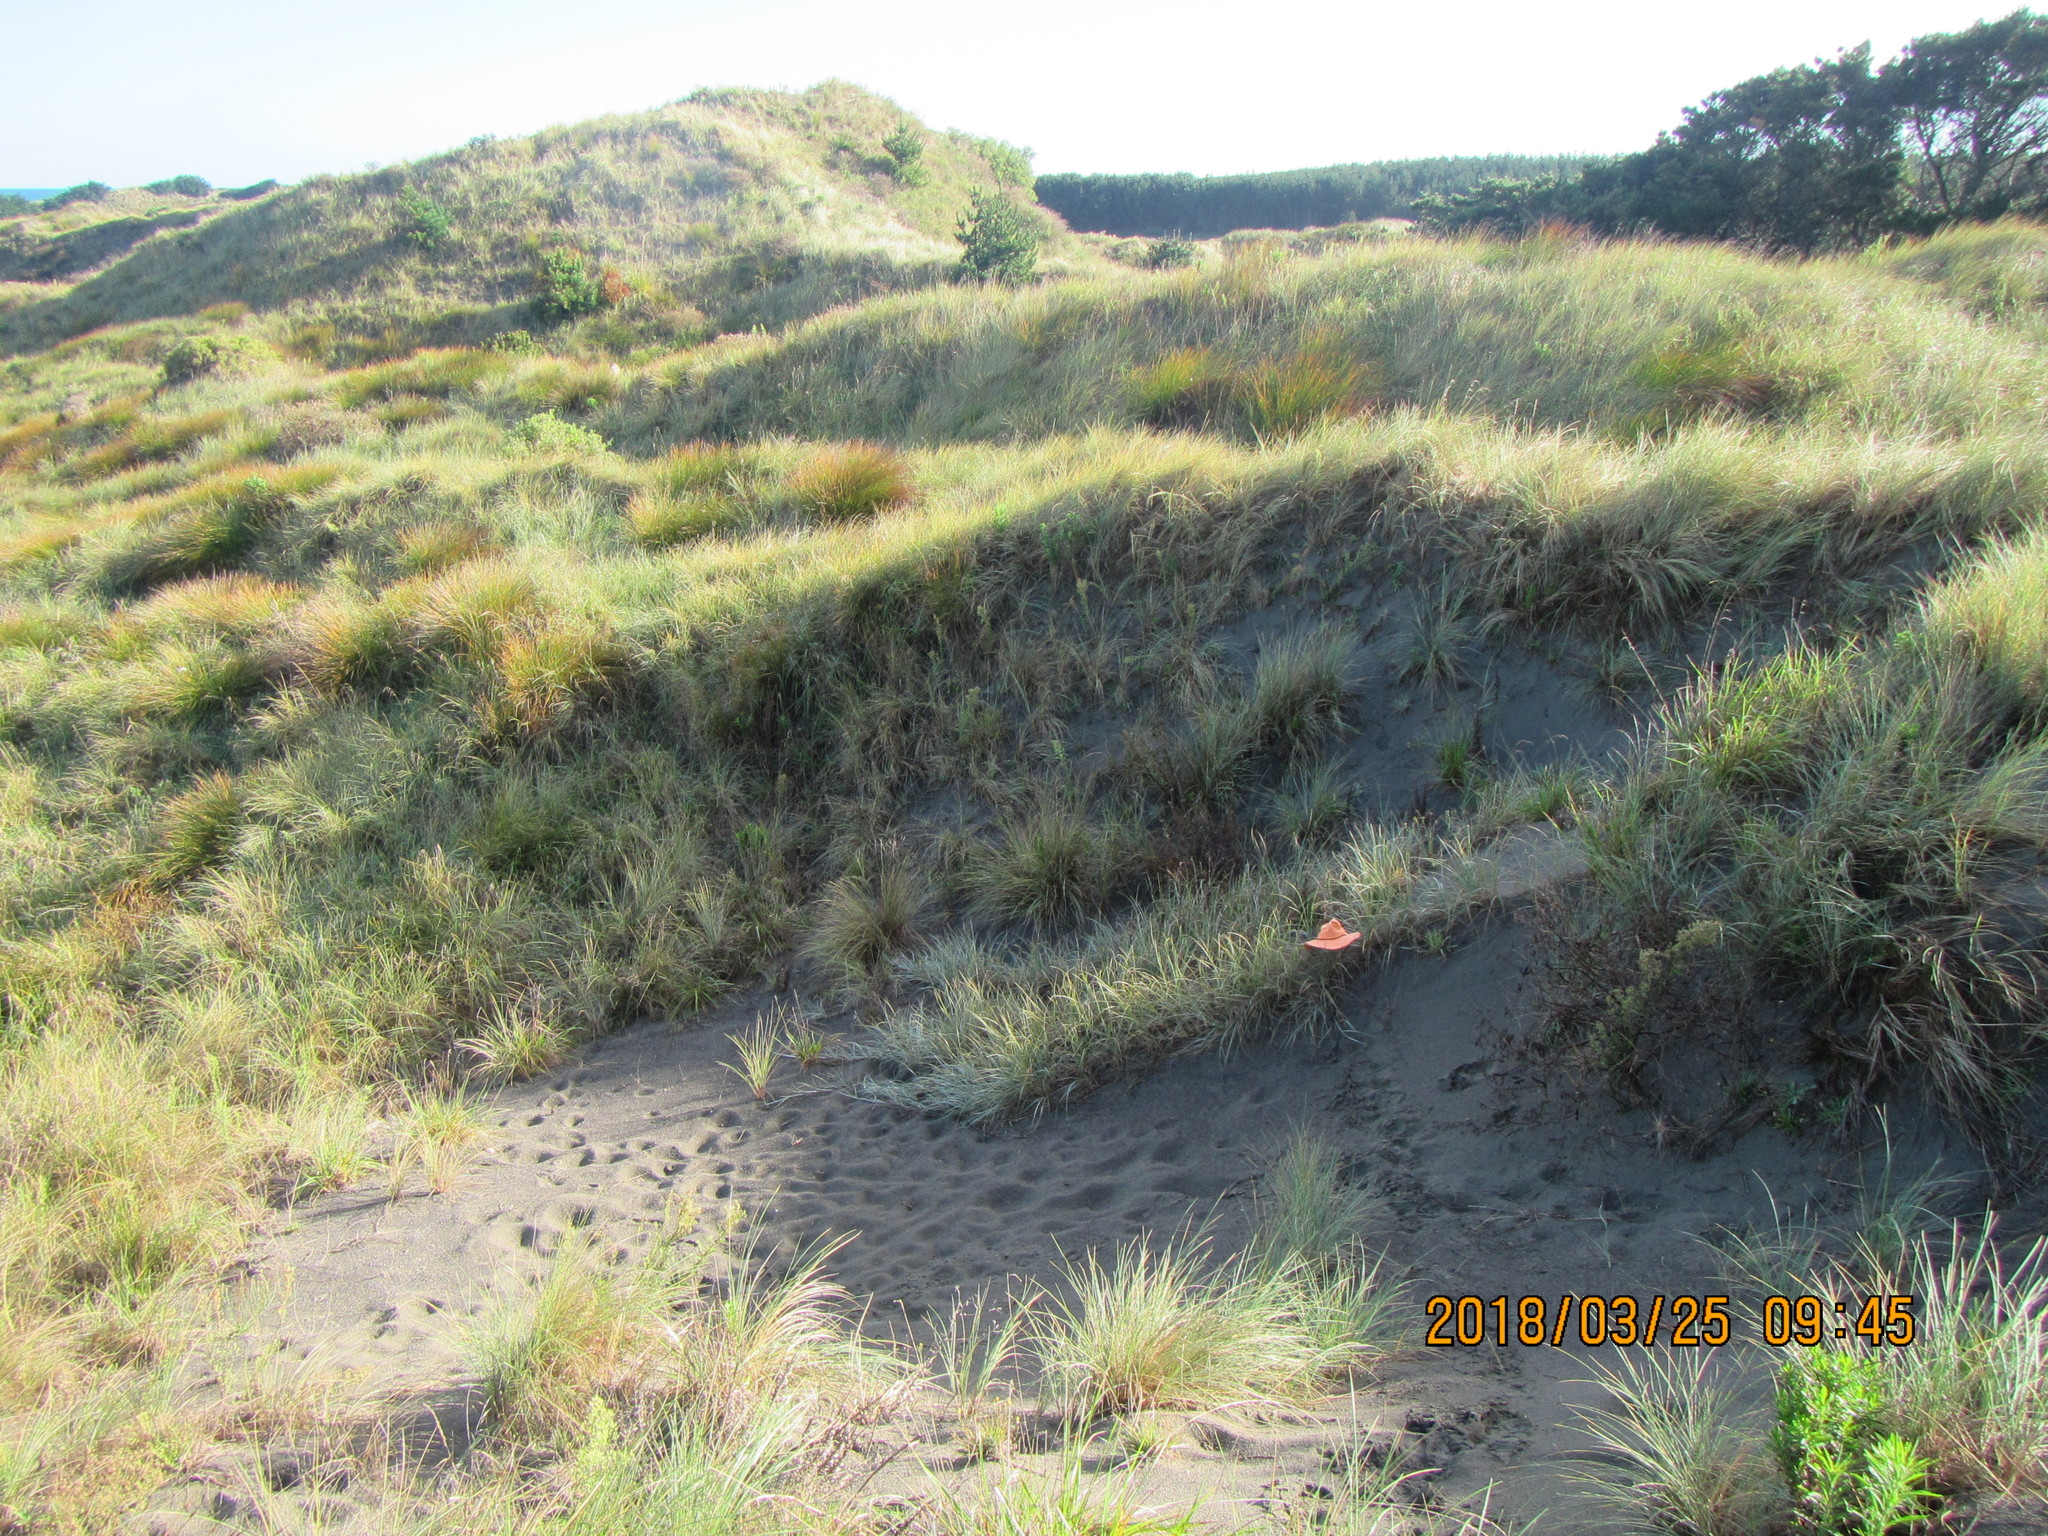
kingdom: Animalia
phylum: Arthropoda
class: Insecta
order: Orthoptera
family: Acrididae
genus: Locusta
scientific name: Locusta migratoria
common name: Migratory locust
